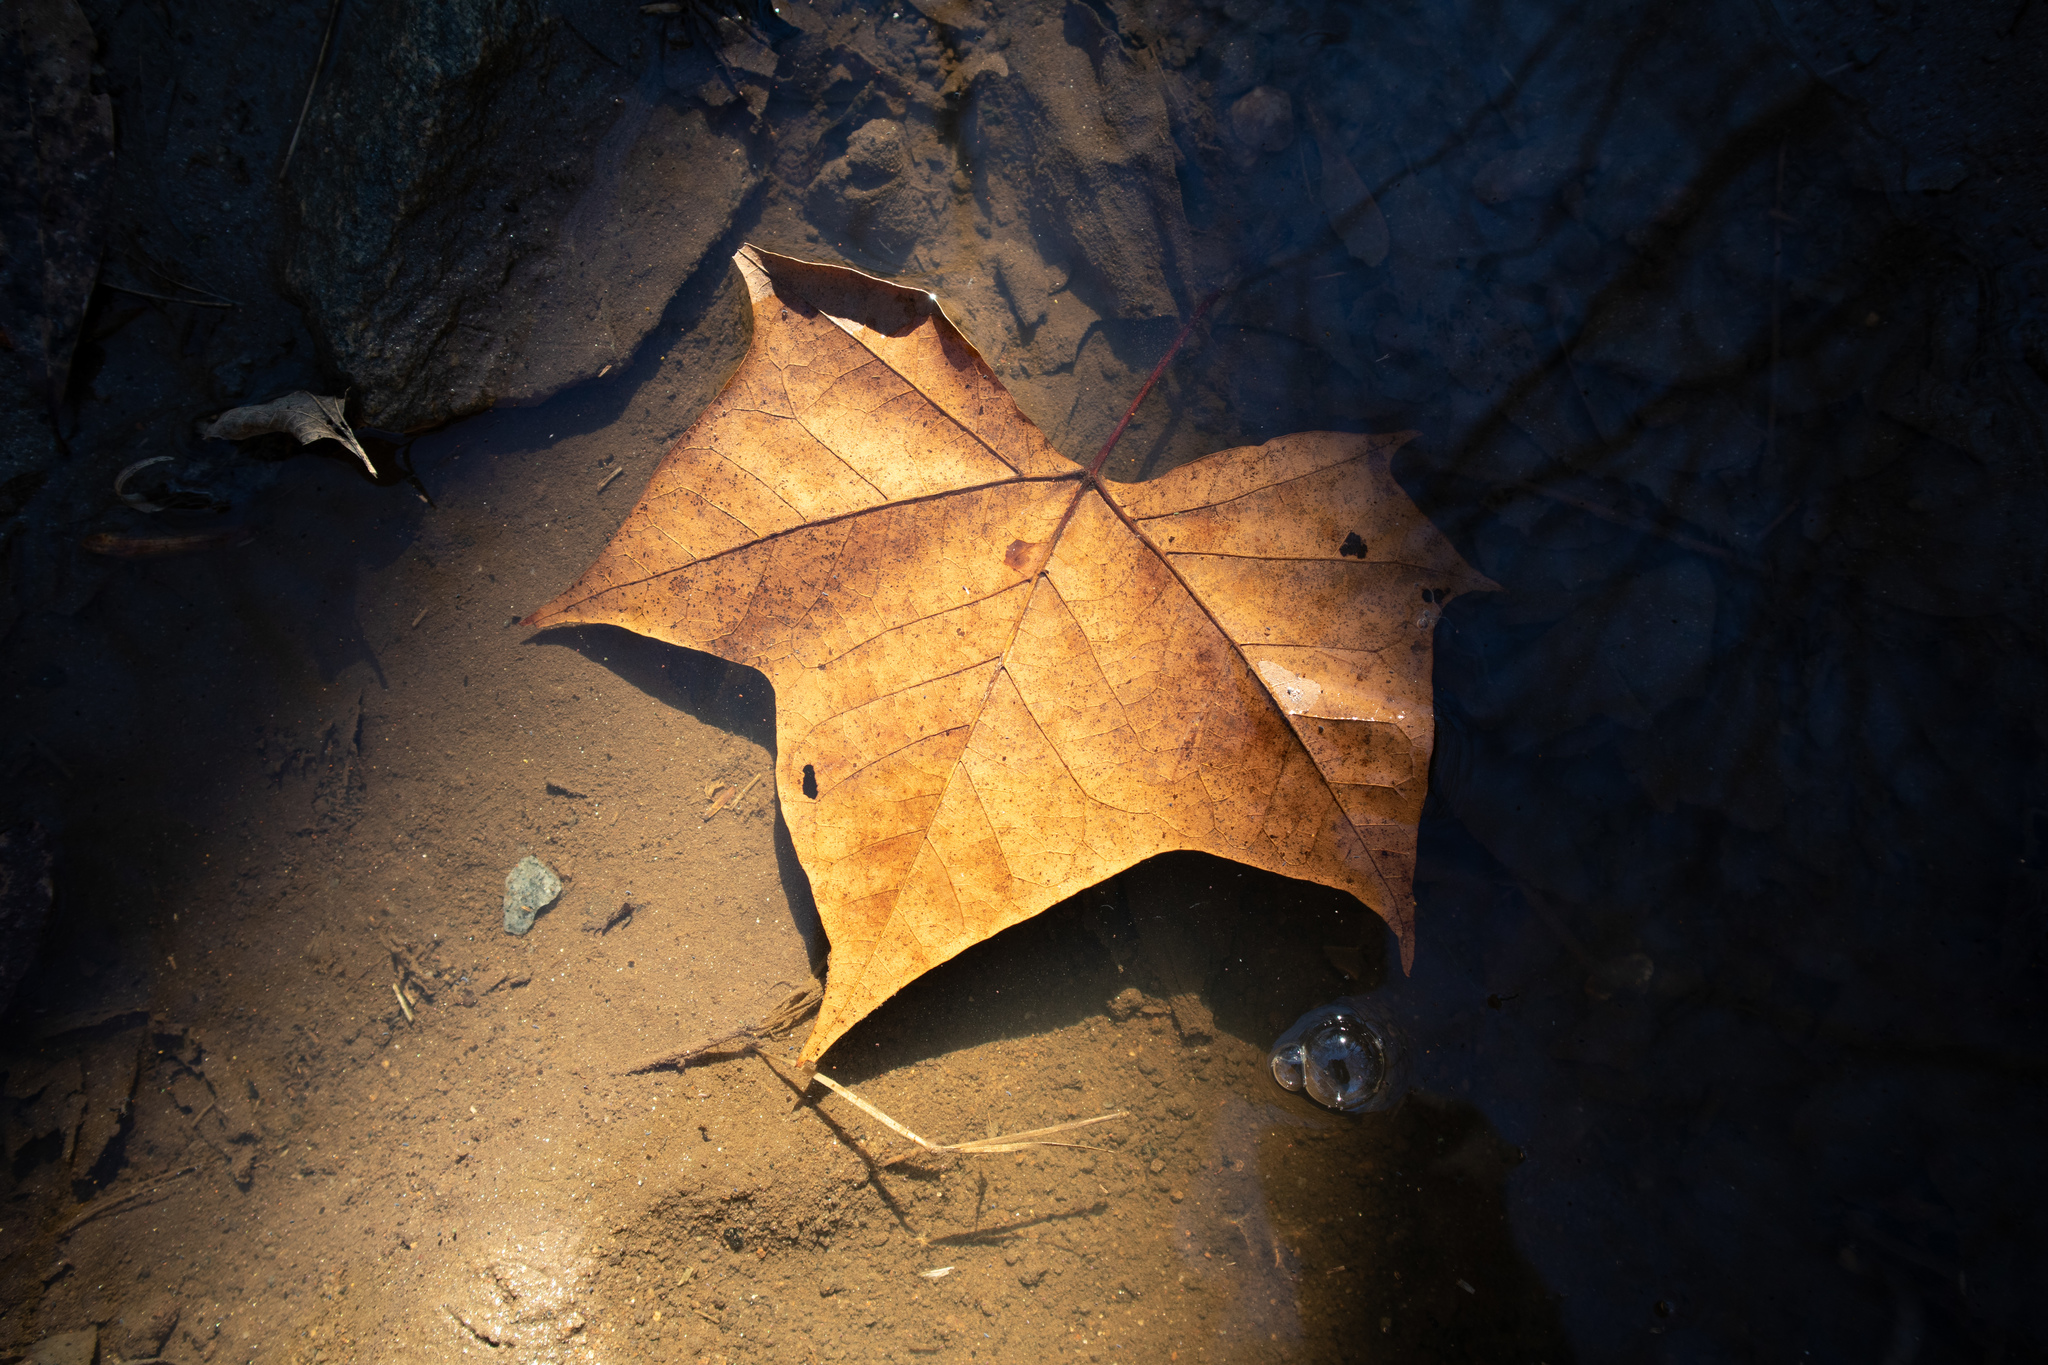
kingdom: Plantae
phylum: Tracheophyta
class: Magnoliopsida
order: Proteales
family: Platanaceae
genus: Platanus
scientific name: Platanus occidentalis
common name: American sycamore
